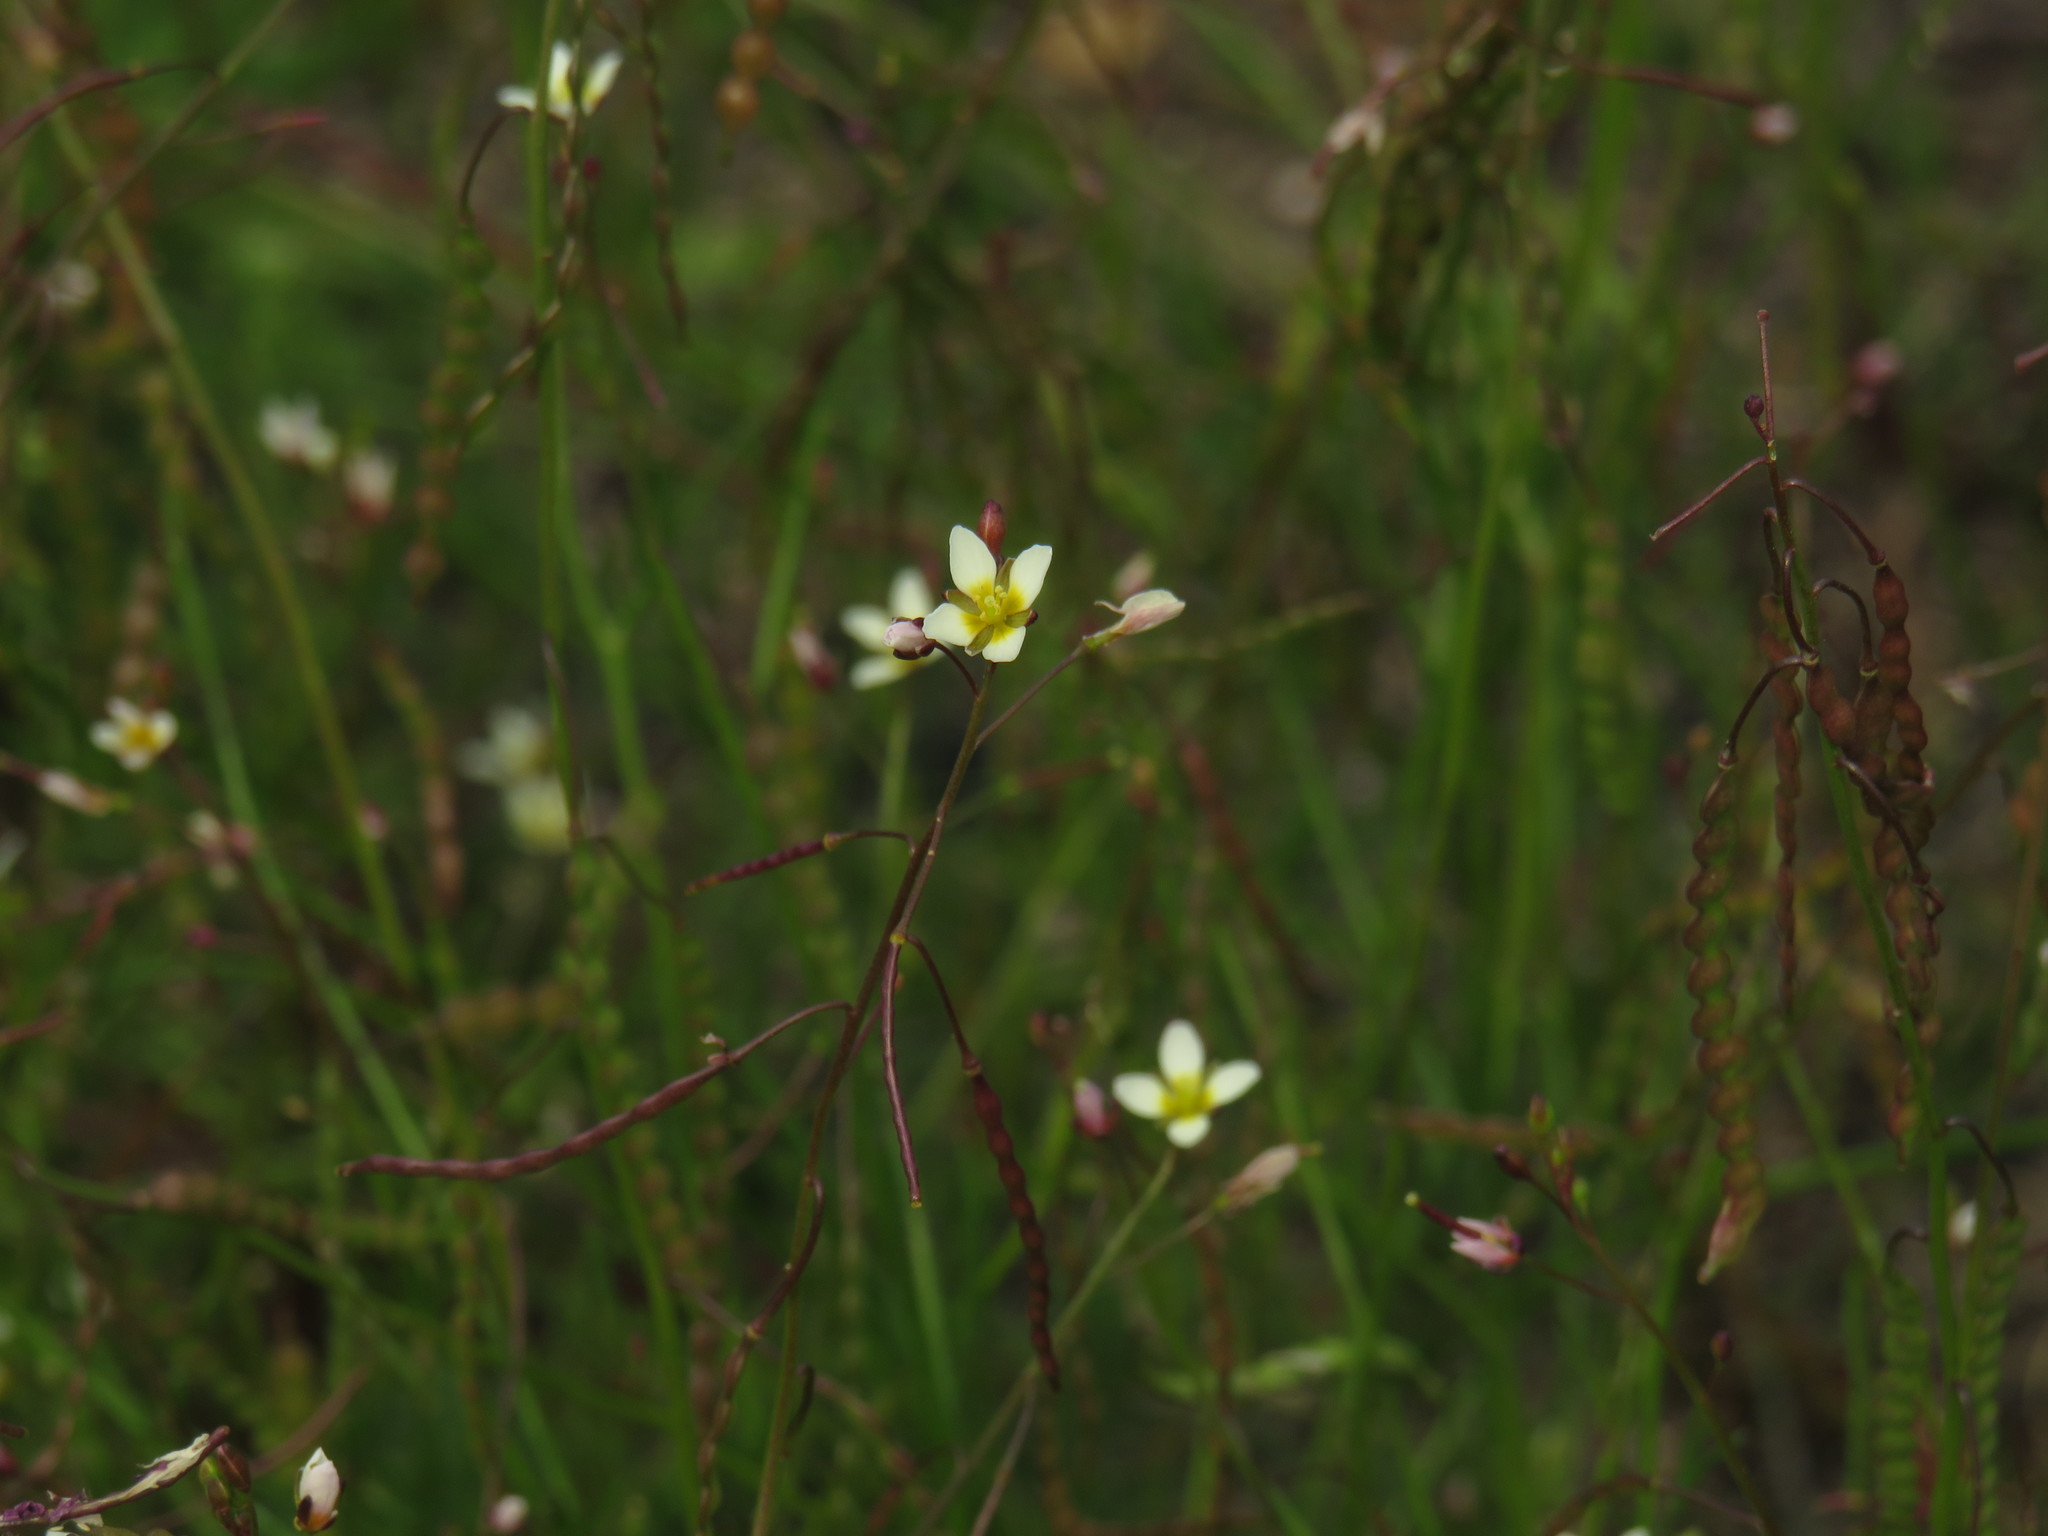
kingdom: Plantae
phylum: Tracheophyta
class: Magnoliopsida
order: Brassicales
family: Brassicaceae
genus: Heliophila
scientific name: Heliophila pendula
